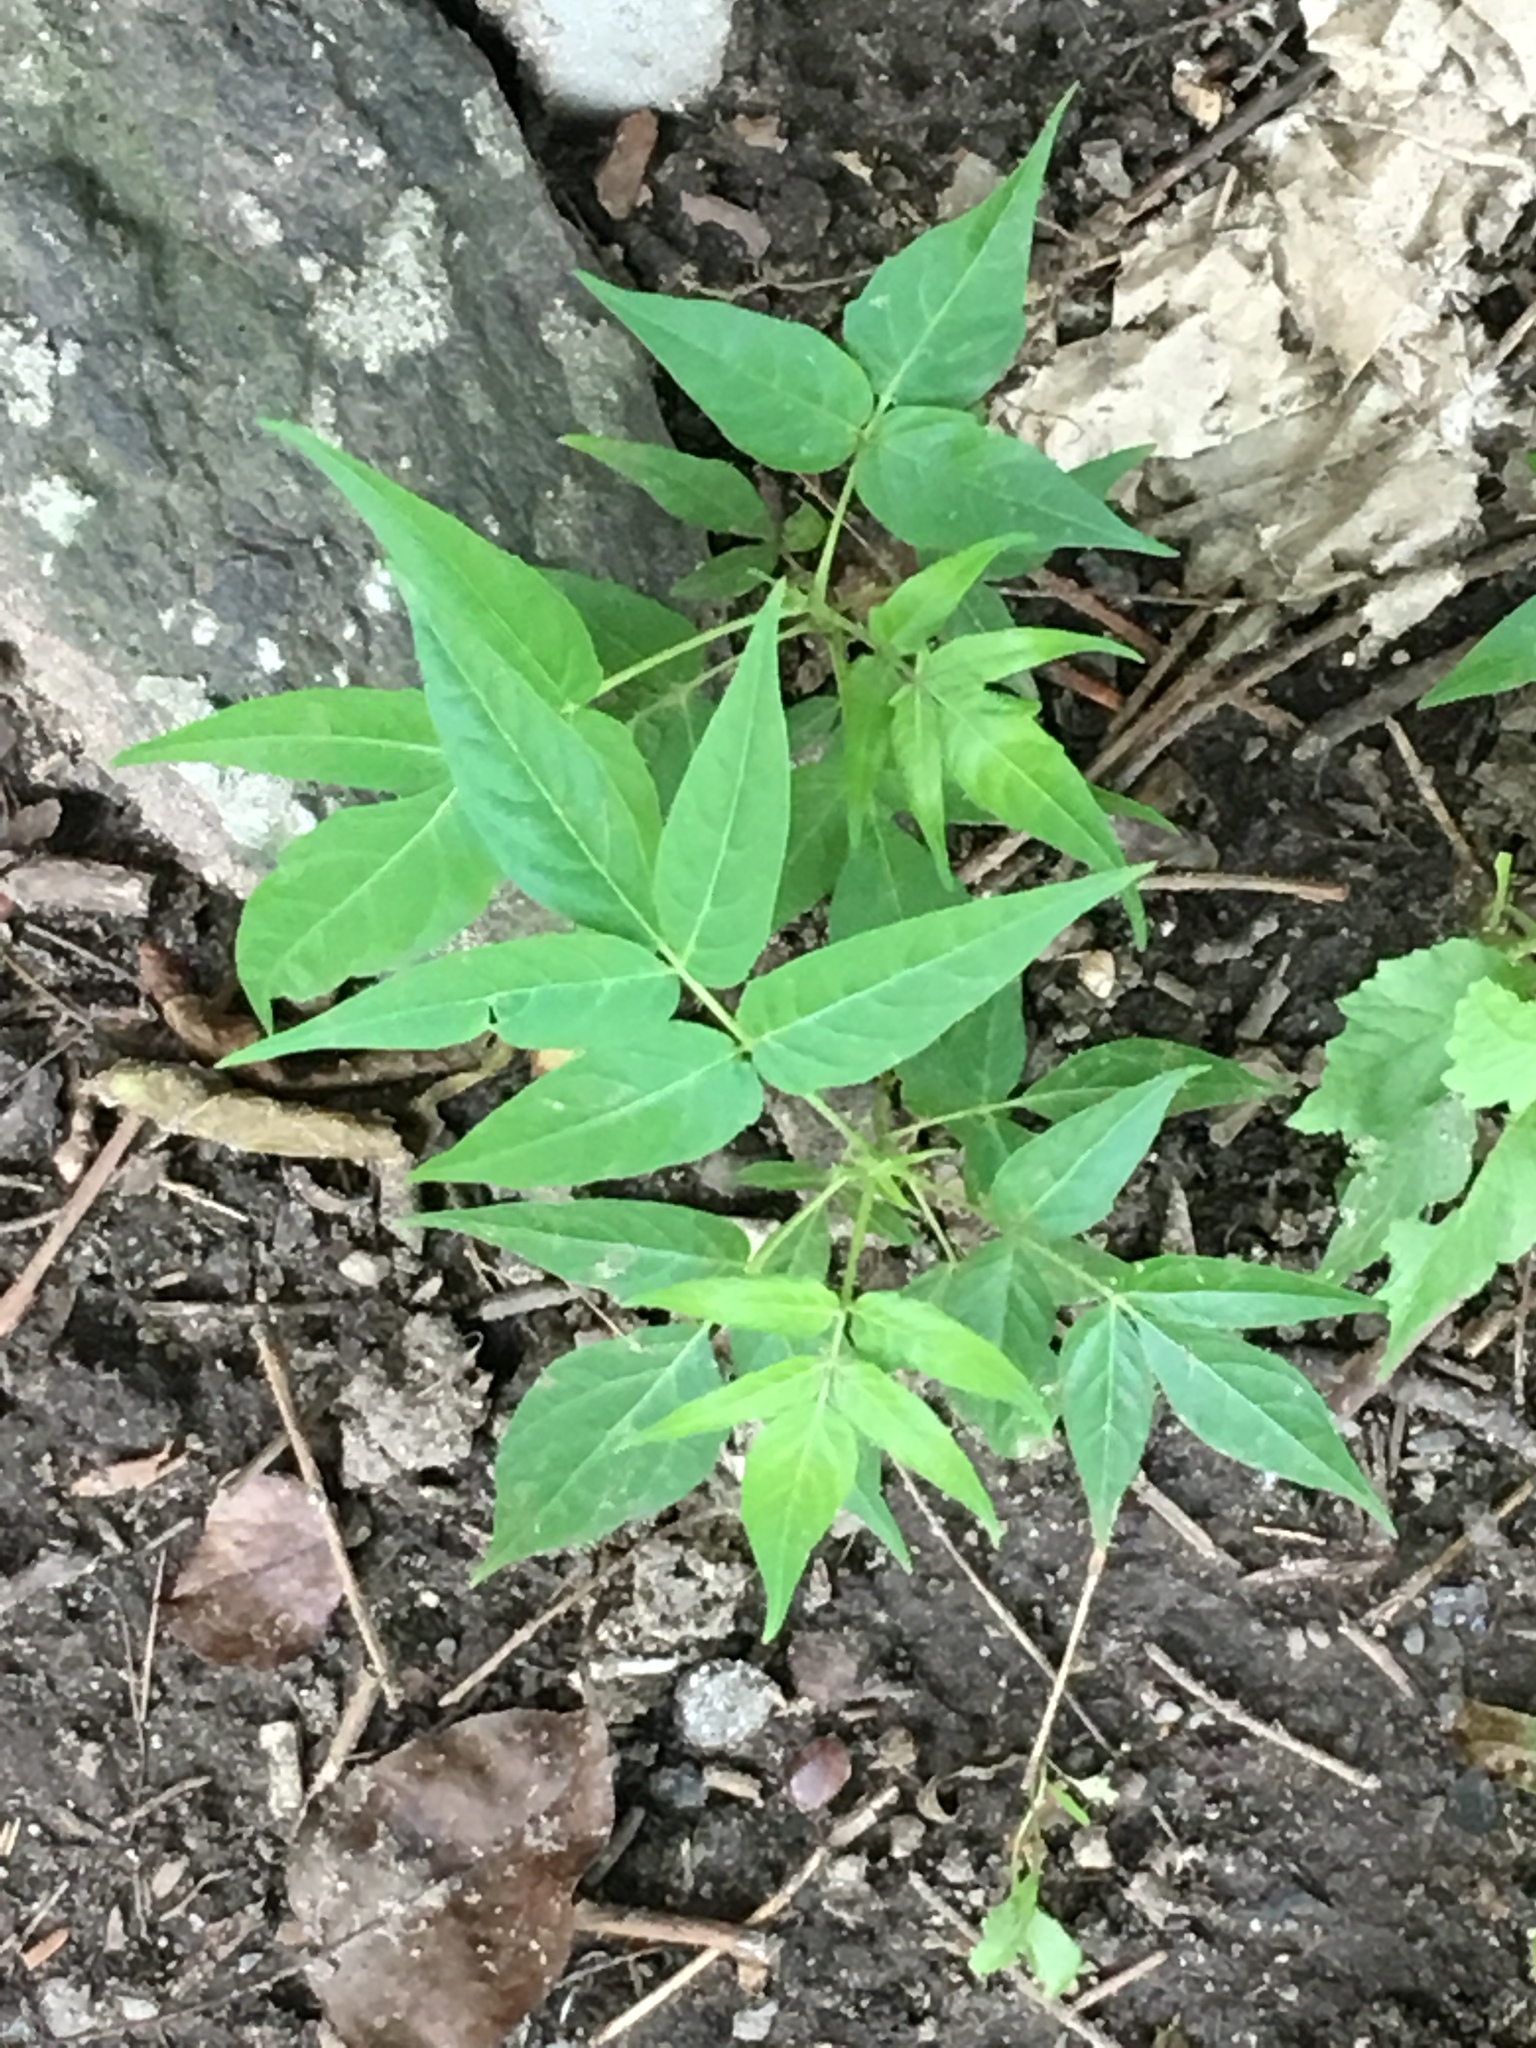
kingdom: Plantae
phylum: Tracheophyta
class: Magnoliopsida
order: Sapindales
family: Simaroubaceae
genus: Ailanthus
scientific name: Ailanthus altissima
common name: Tree-of-heaven
